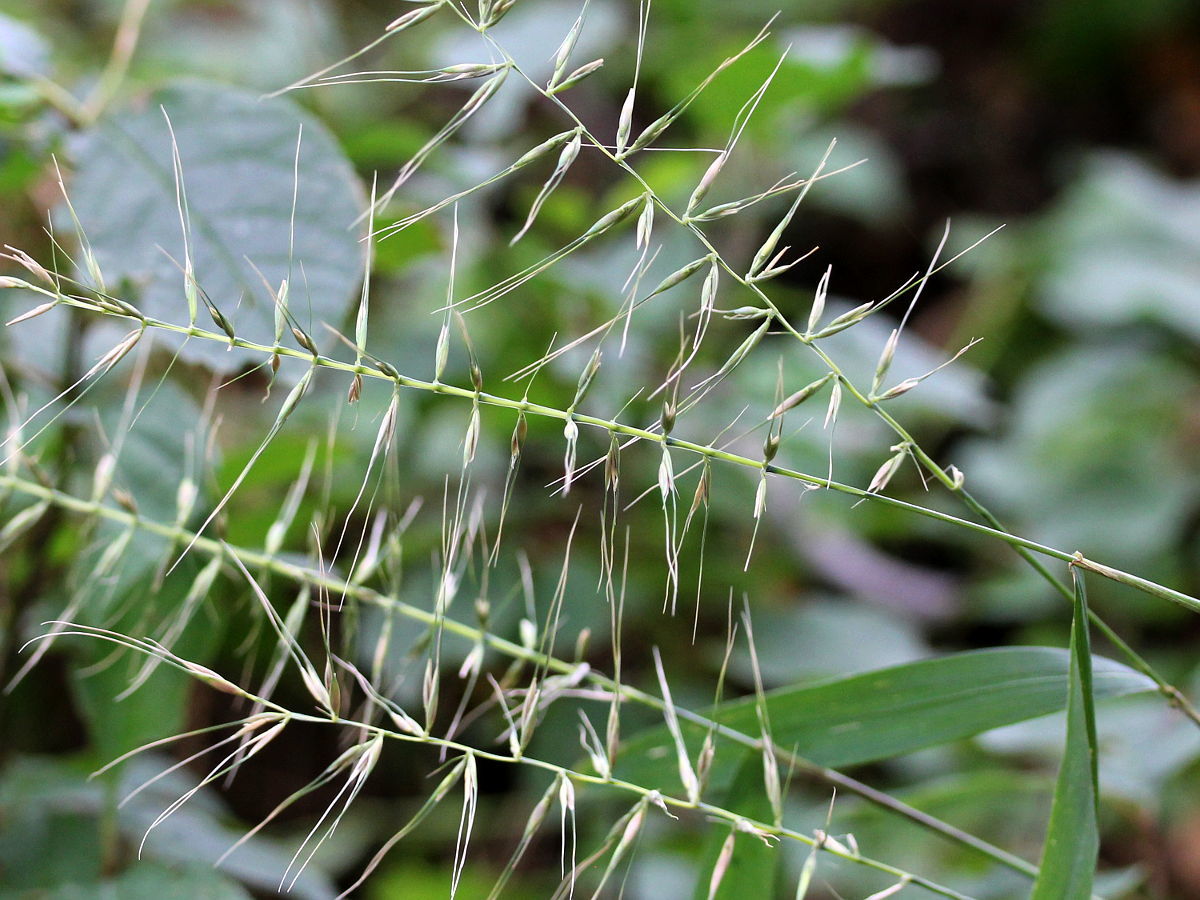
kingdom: Plantae
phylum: Tracheophyta
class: Liliopsida
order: Poales
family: Poaceae
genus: Elymus
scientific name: Elymus hystrix
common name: Bottlebrush grass
